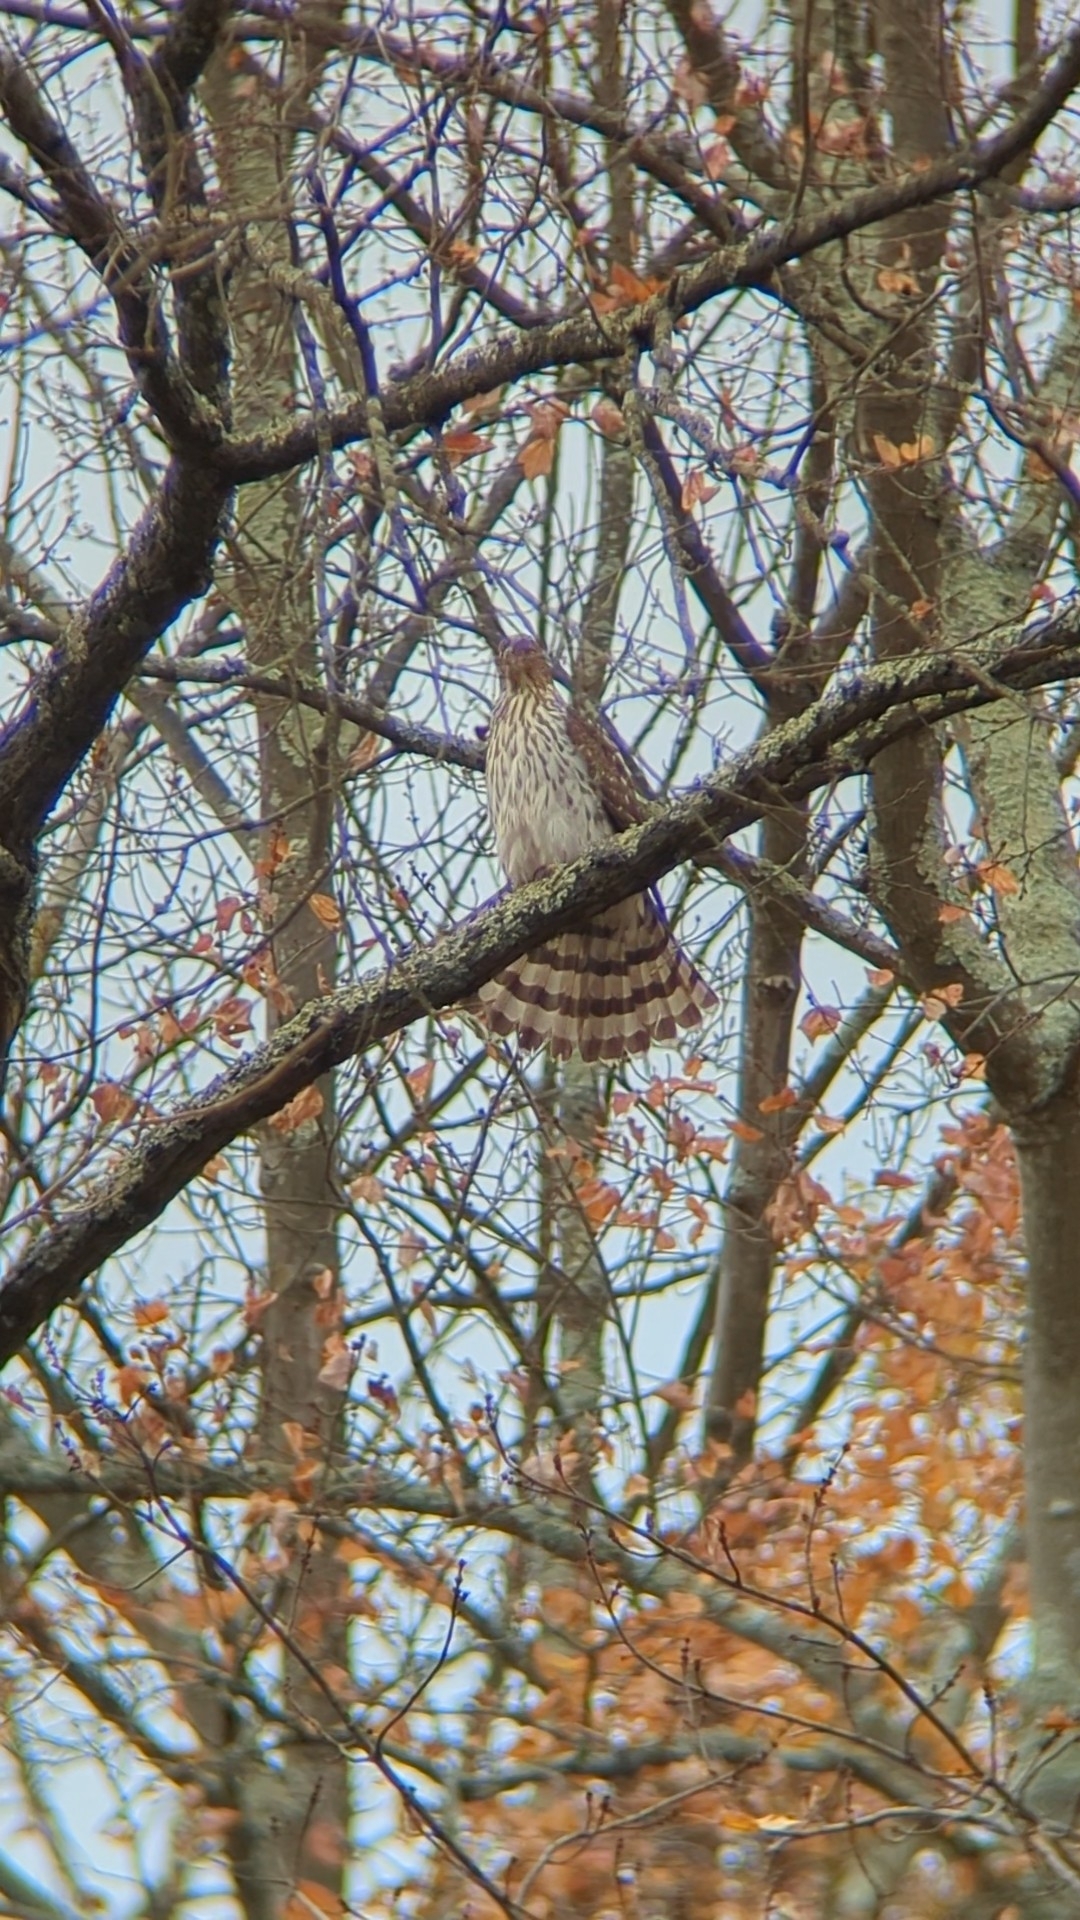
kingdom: Animalia
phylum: Chordata
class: Aves
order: Accipitriformes
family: Accipitridae
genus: Accipiter
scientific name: Accipiter cooperii
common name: Cooper's hawk
